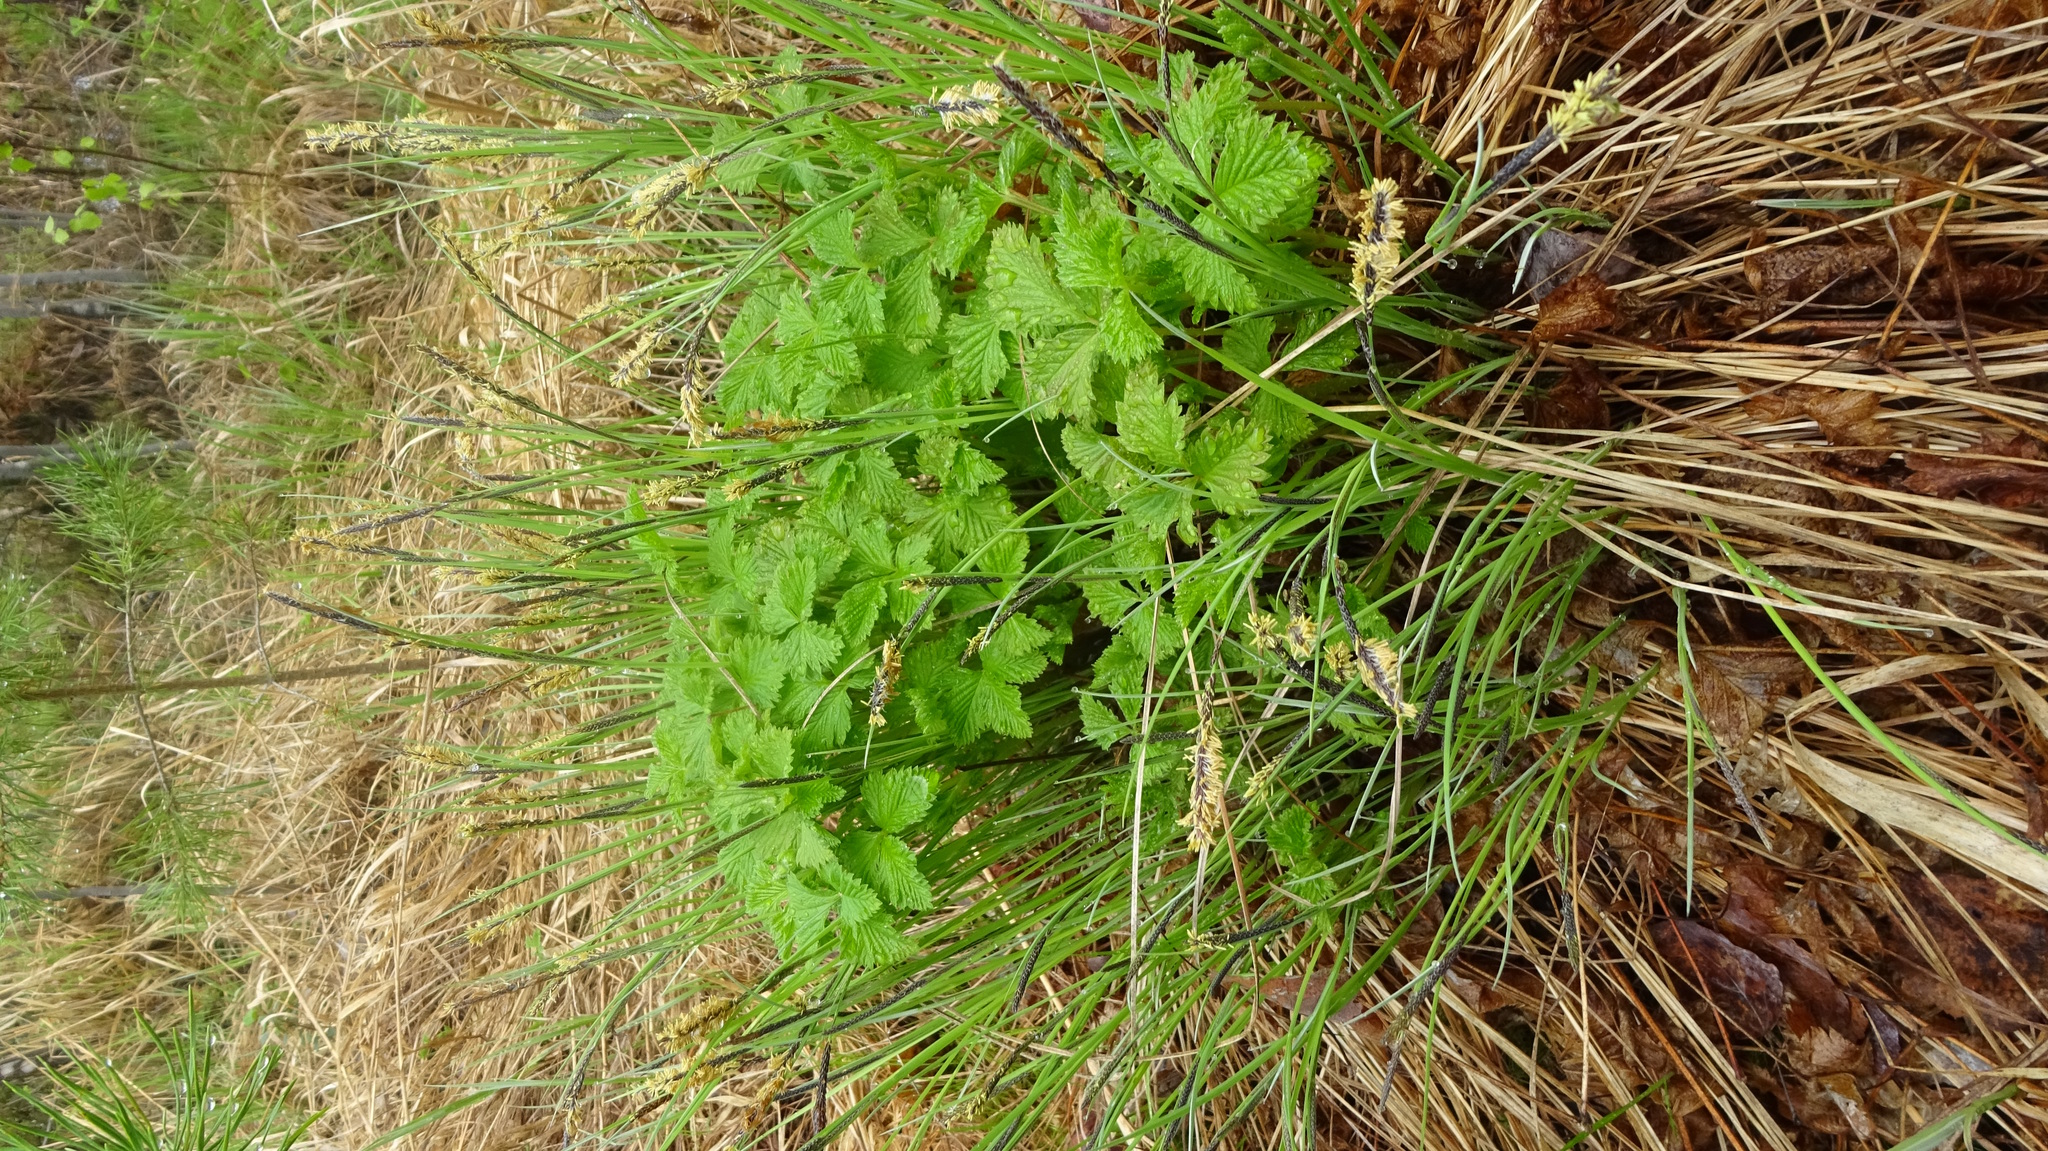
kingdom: Plantae
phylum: Tracheophyta
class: Magnoliopsida
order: Rosales
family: Rosaceae
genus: Rubus
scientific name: Rubus arcticus
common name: Arctic bramble
